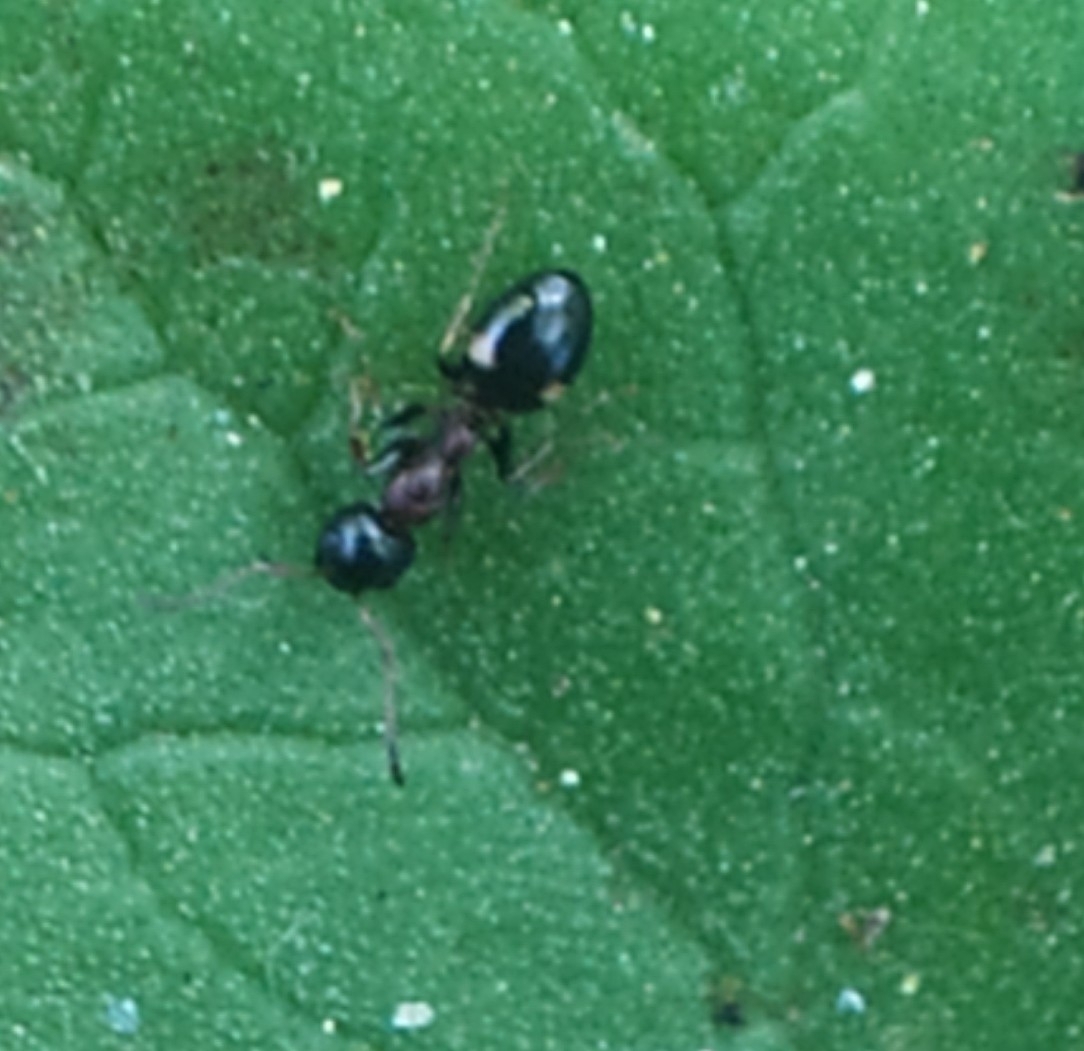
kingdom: Animalia
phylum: Arthropoda
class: Insecta
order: Hymenoptera
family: Formicidae
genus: Dolichoderus
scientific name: Dolichoderus quadripunctatus
